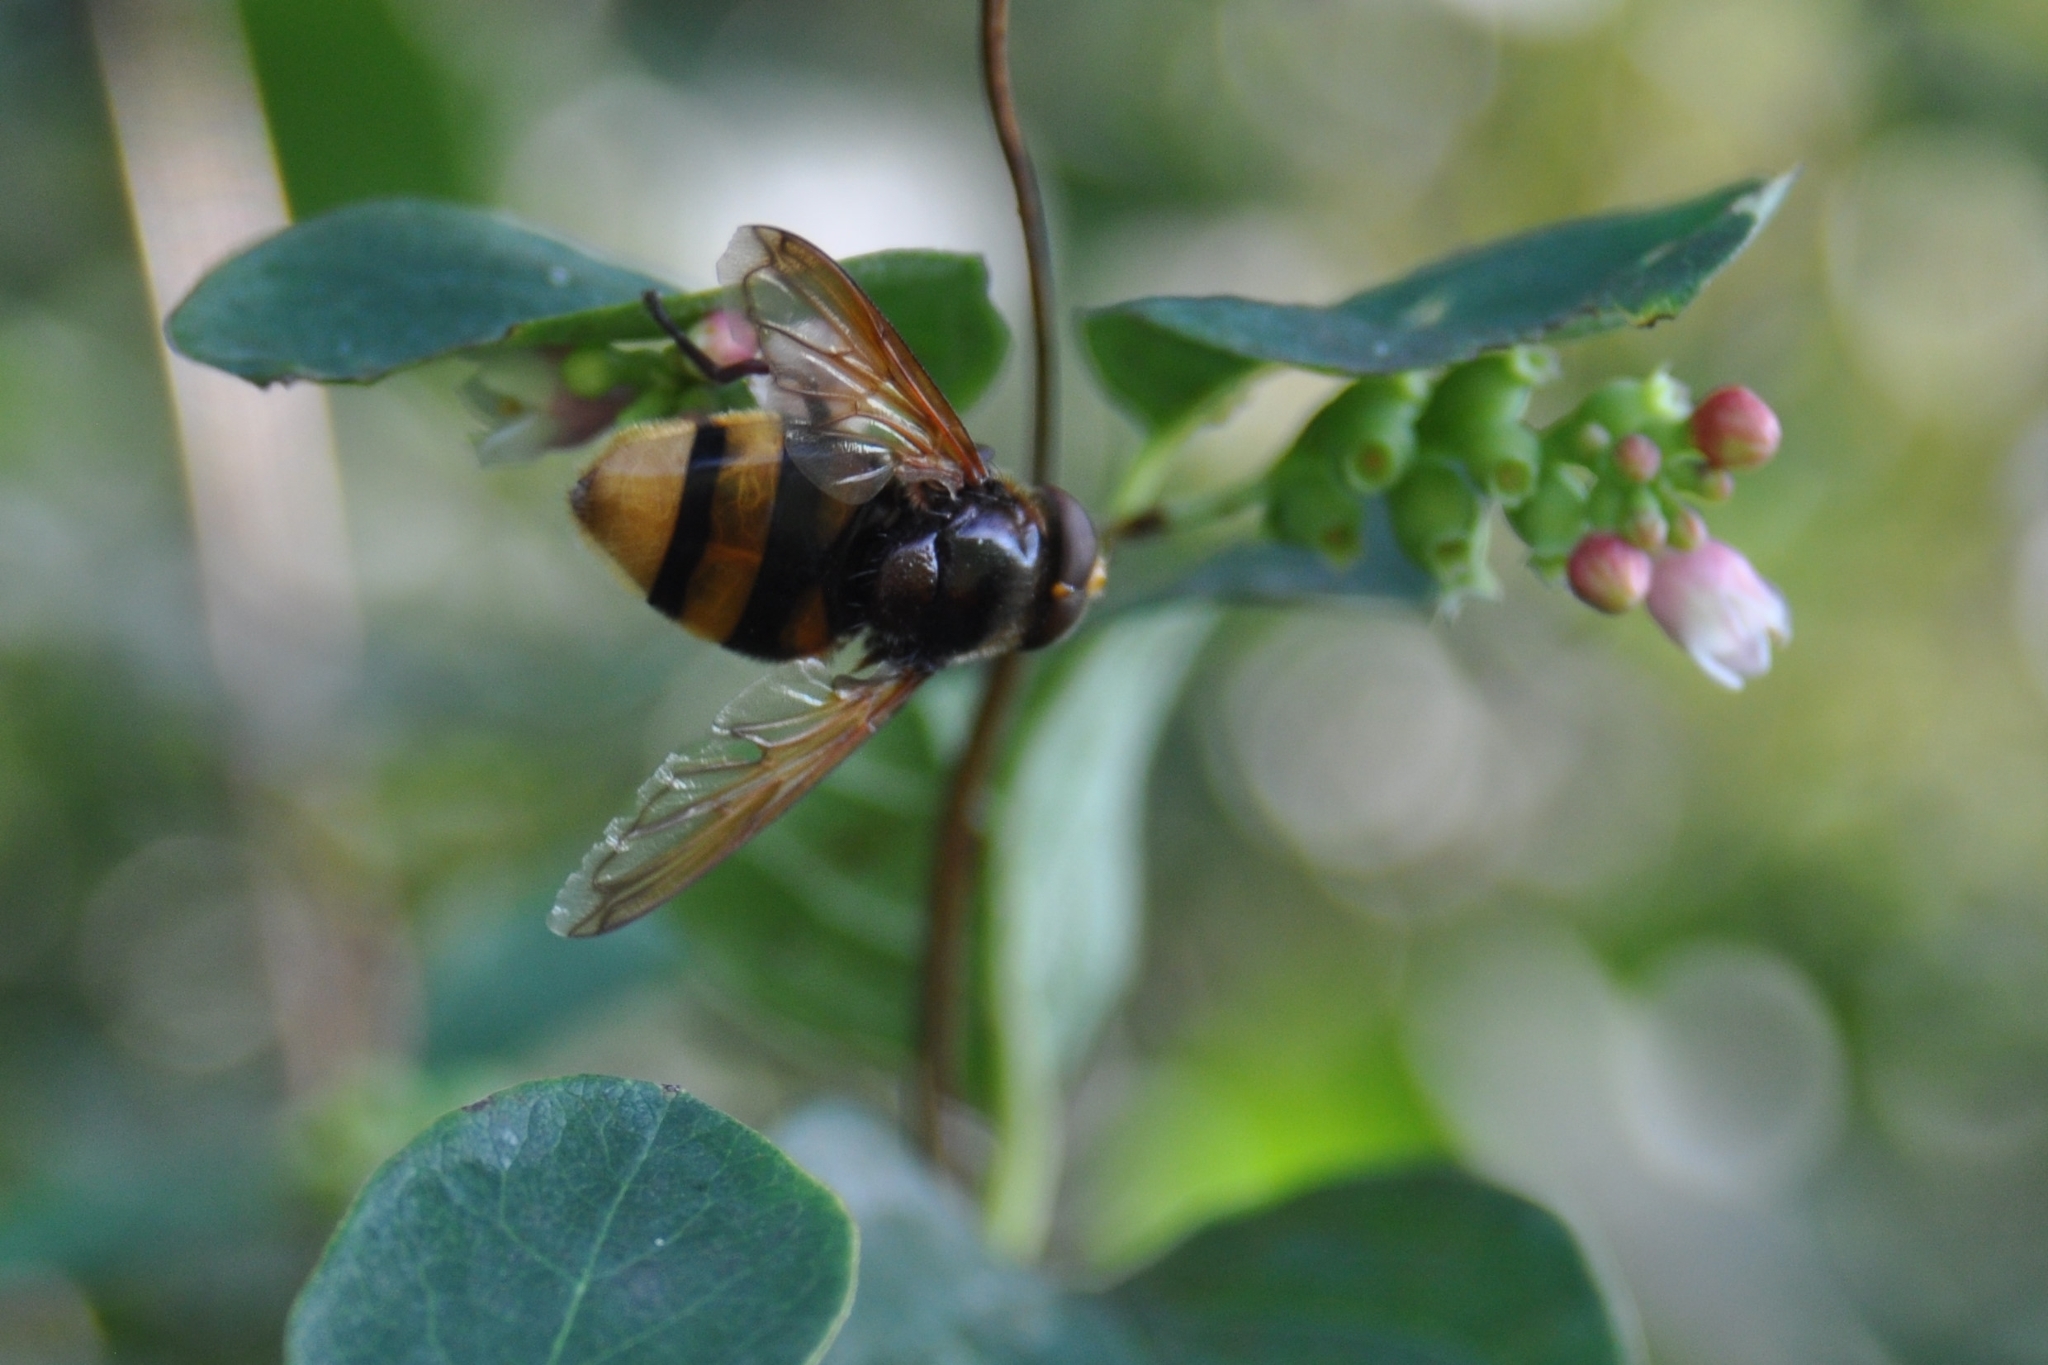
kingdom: Animalia
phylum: Arthropoda
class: Insecta
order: Diptera
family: Syrphidae
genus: Volucella
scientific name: Volucella zonaria
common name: Hornet hoverfly
